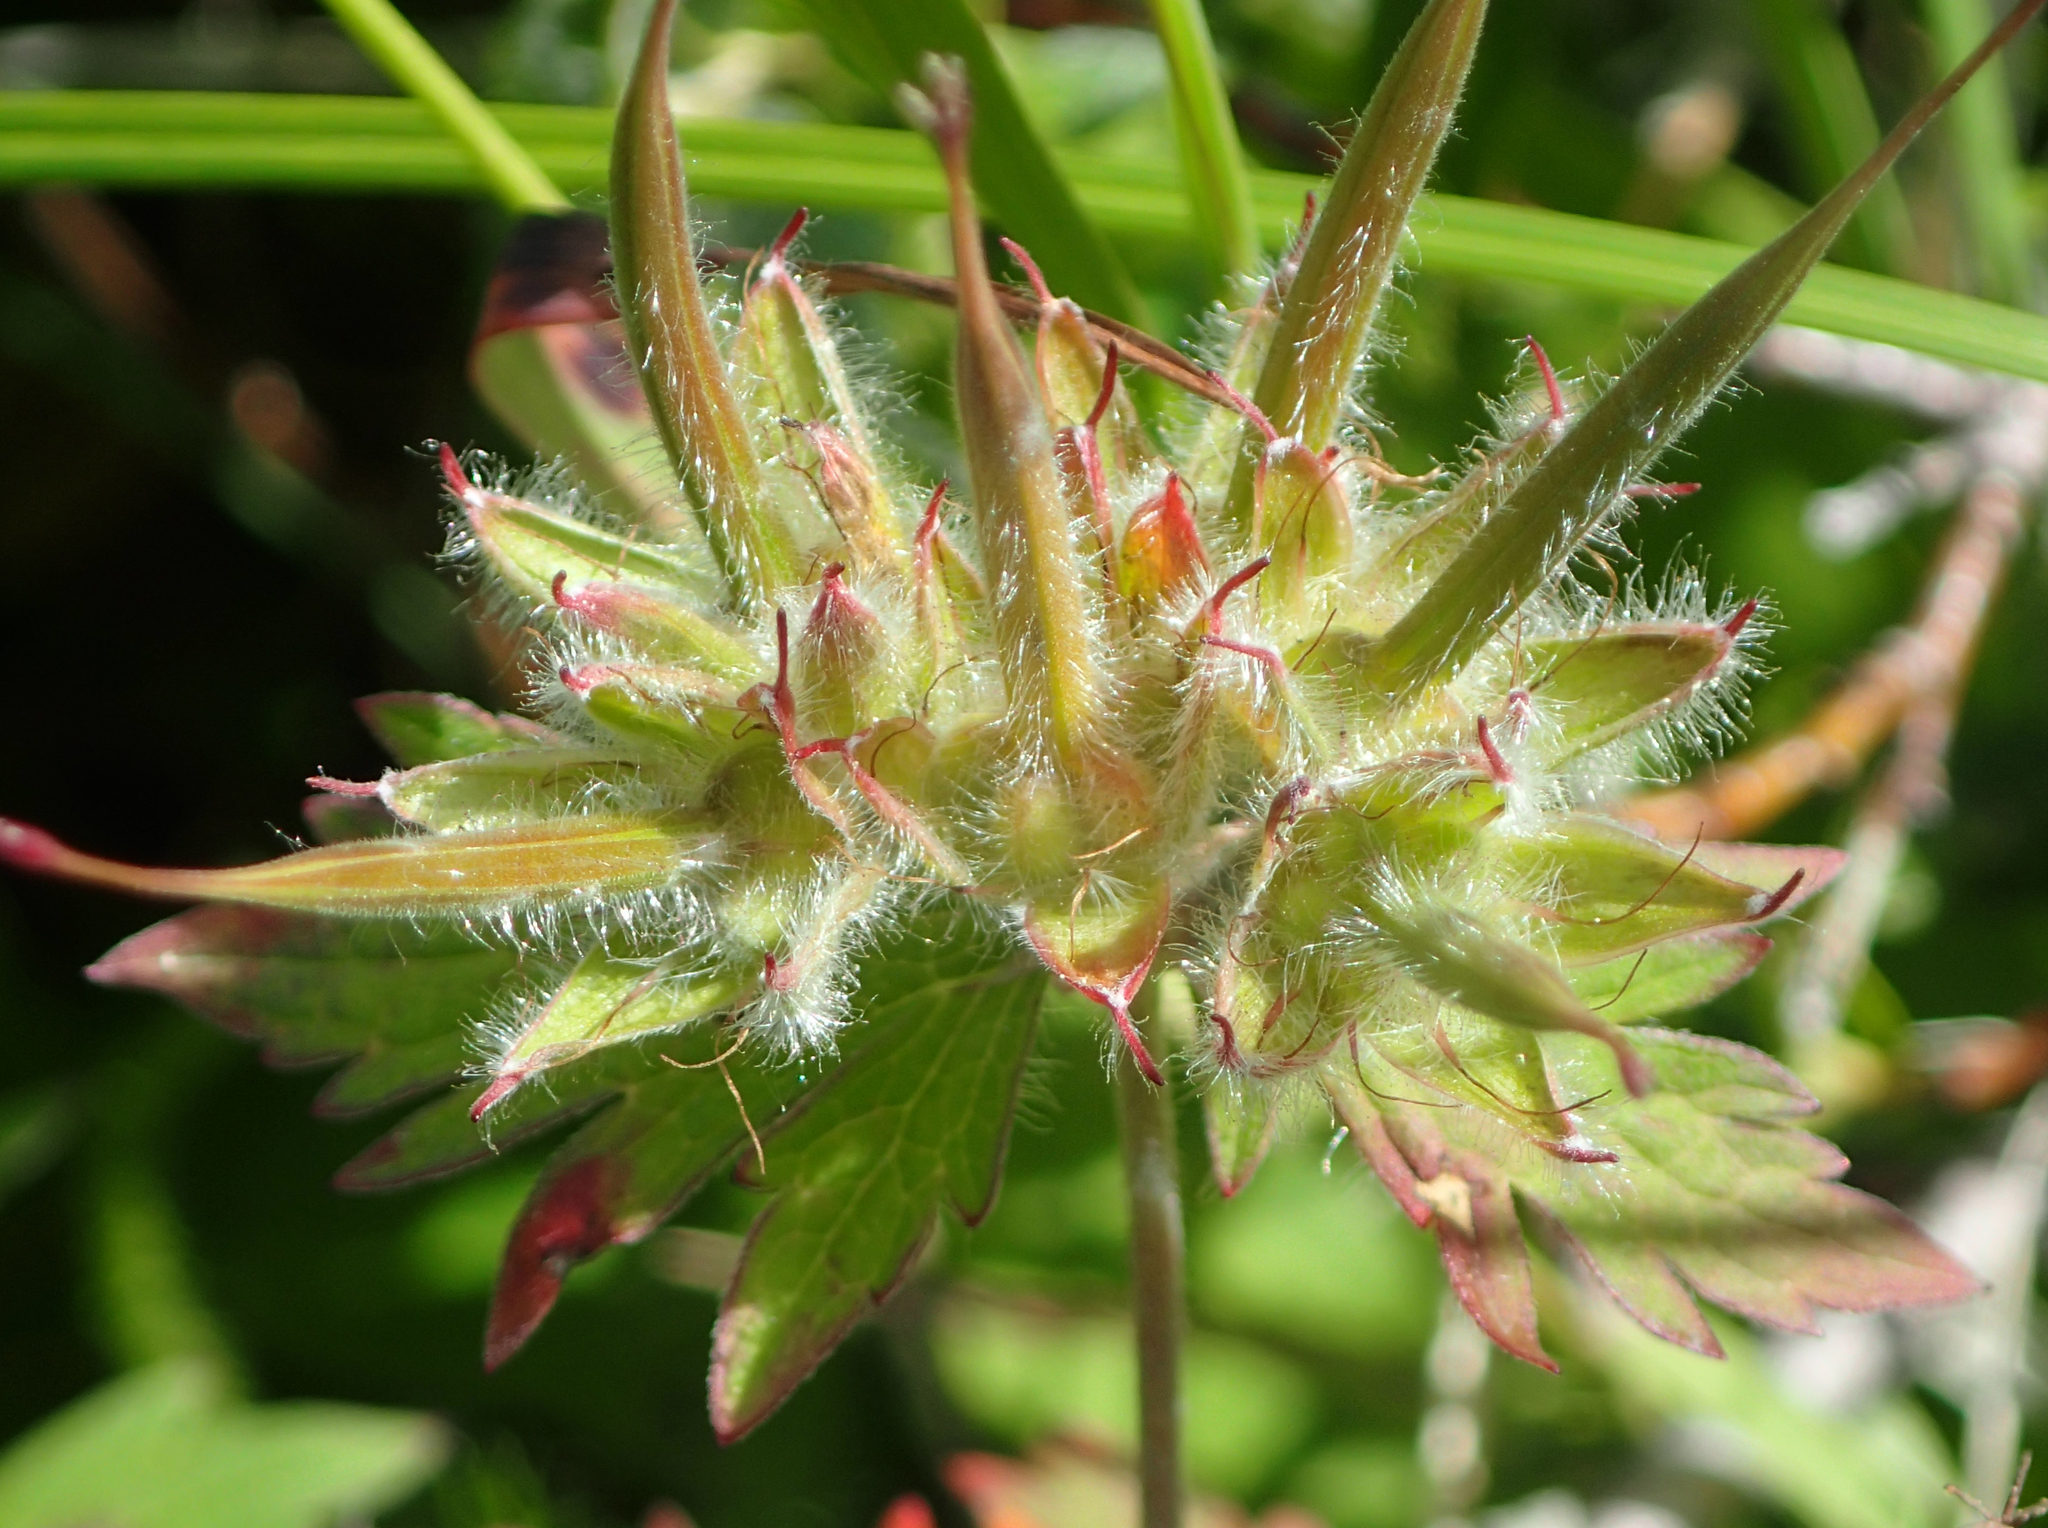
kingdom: Plantae
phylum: Tracheophyta
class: Magnoliopsida
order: Geraniales
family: Geraniaceae
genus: Geranium
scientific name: Geranium erianthum
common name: Northern crane's-bill
